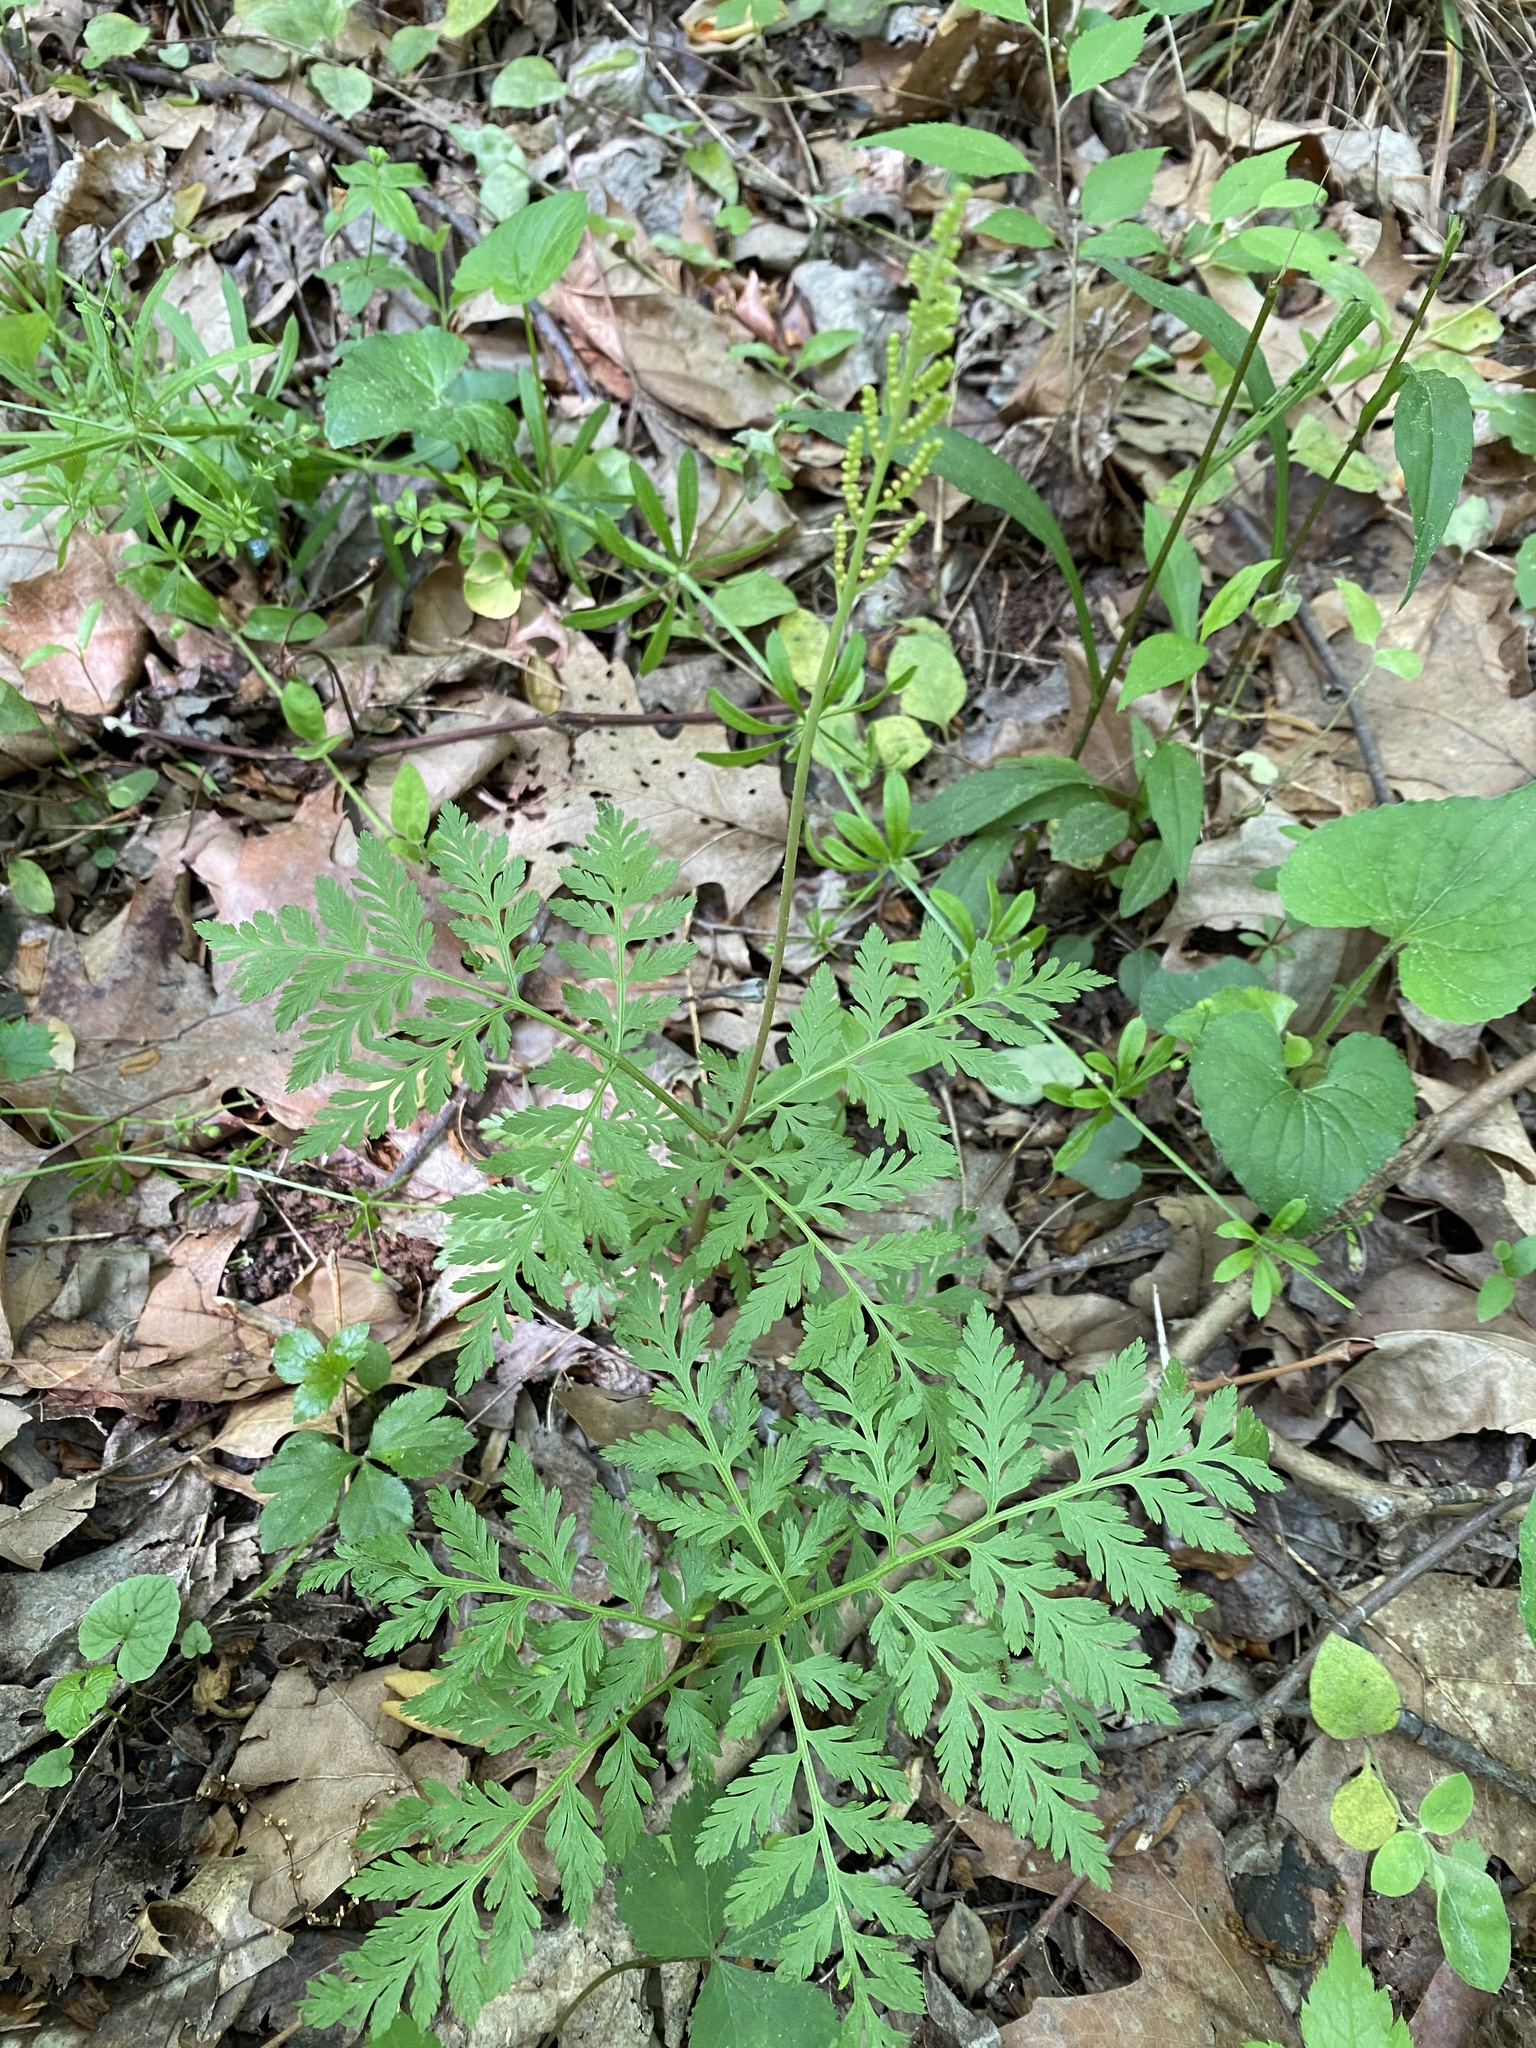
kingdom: Plantae
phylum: Tracheophyta
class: Polypodiopsida
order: Ophioglossales
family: Ophioglossaceae
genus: Botrypus
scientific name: Botrypus virginianus
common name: Common grapefern
